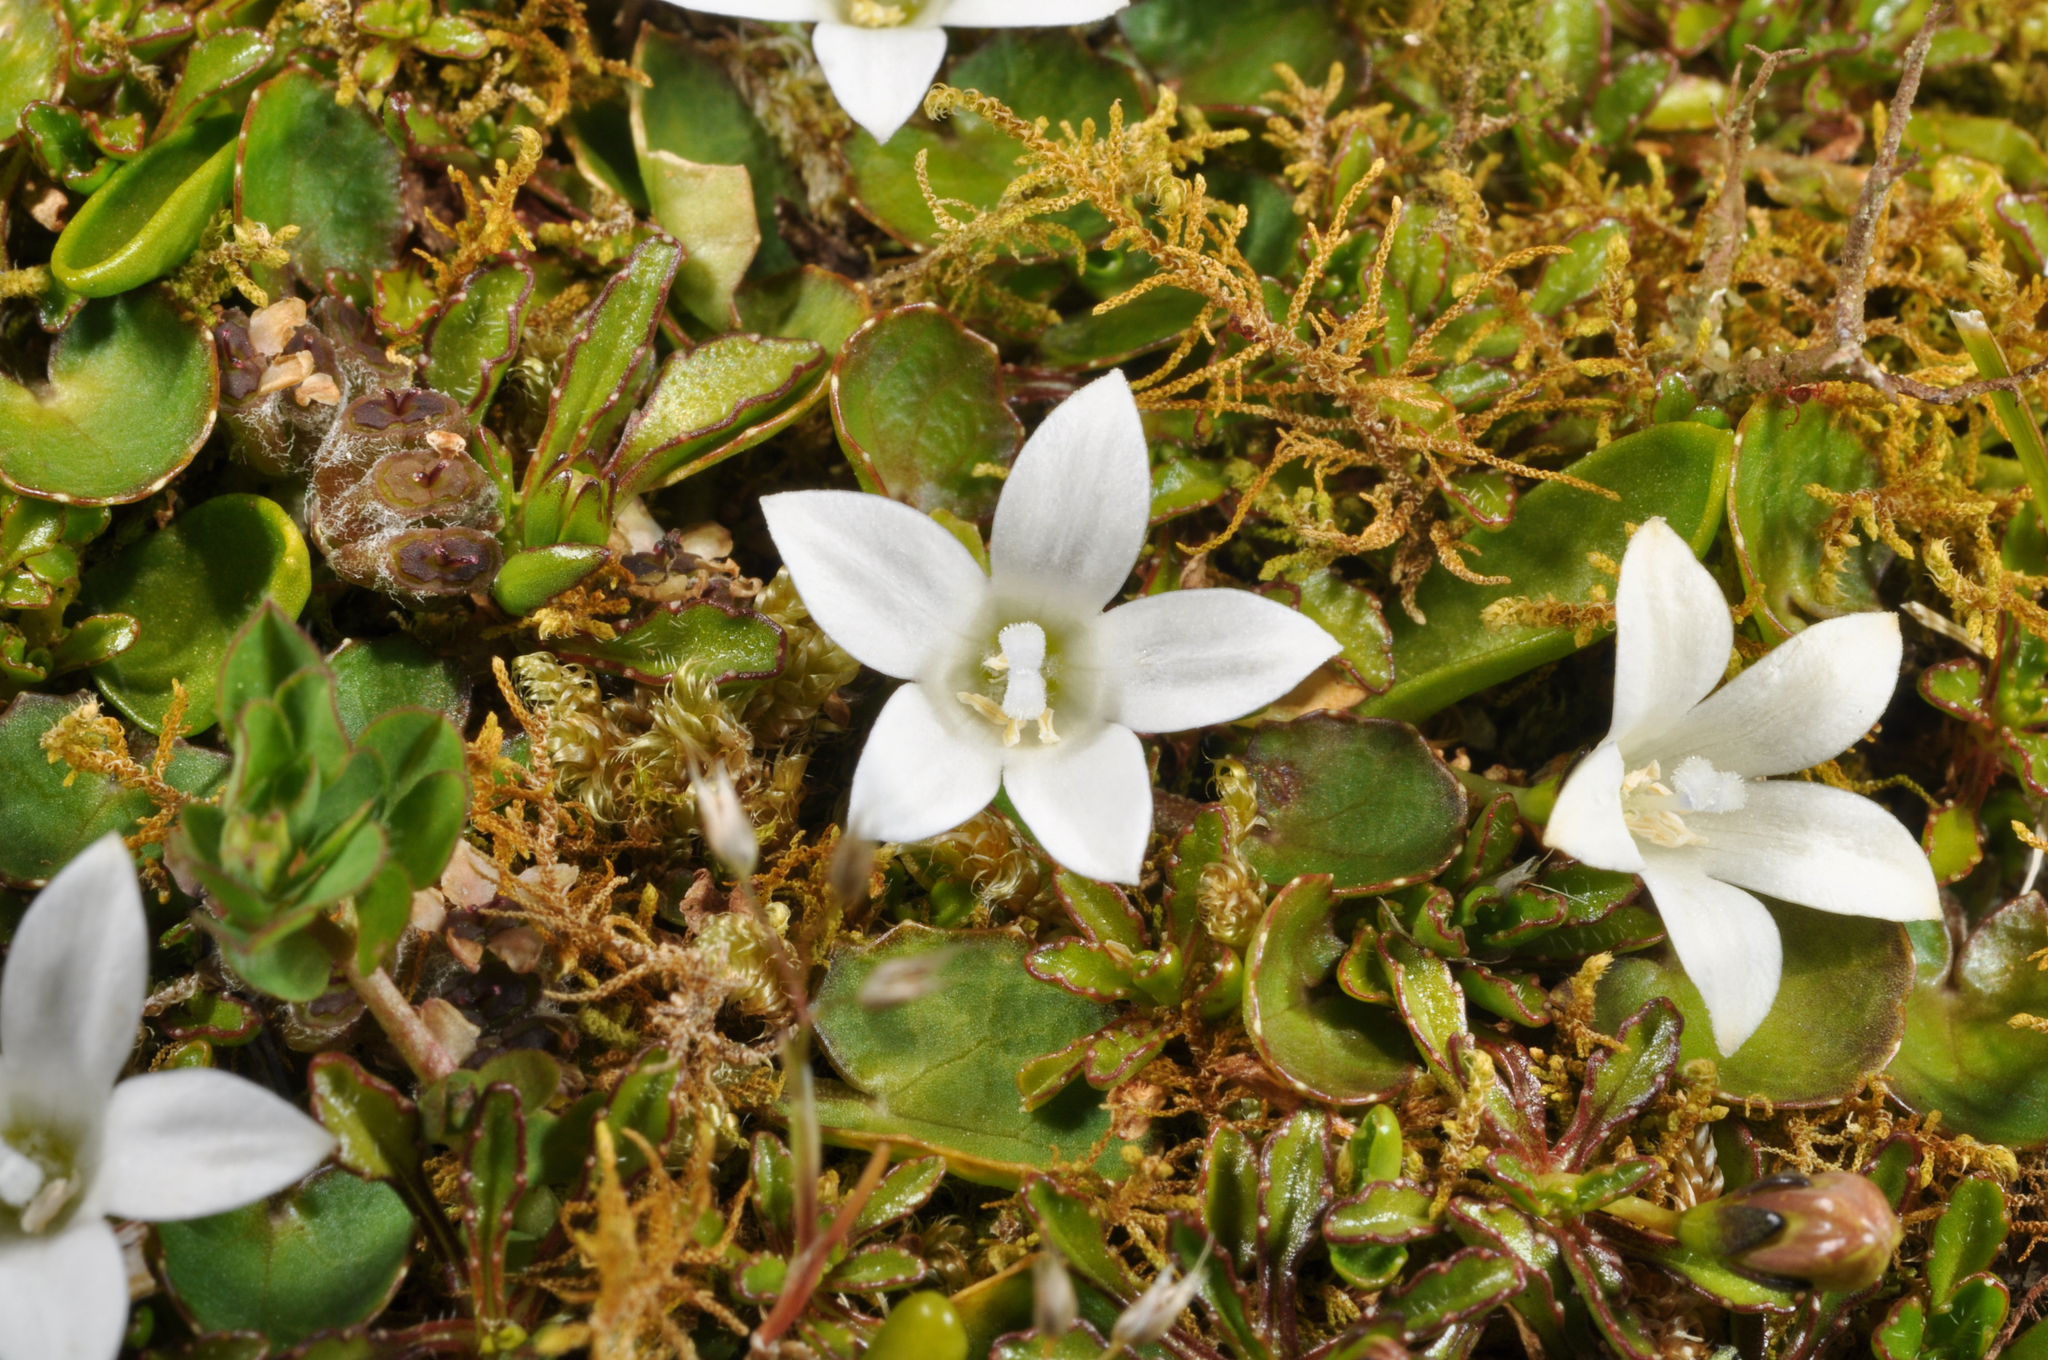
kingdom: Plantae
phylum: Tracheophyta
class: Magnoliopsida
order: Asterales
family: Campanulaceae
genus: Wahlenbergia
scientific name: Wahlenbergia congesta
